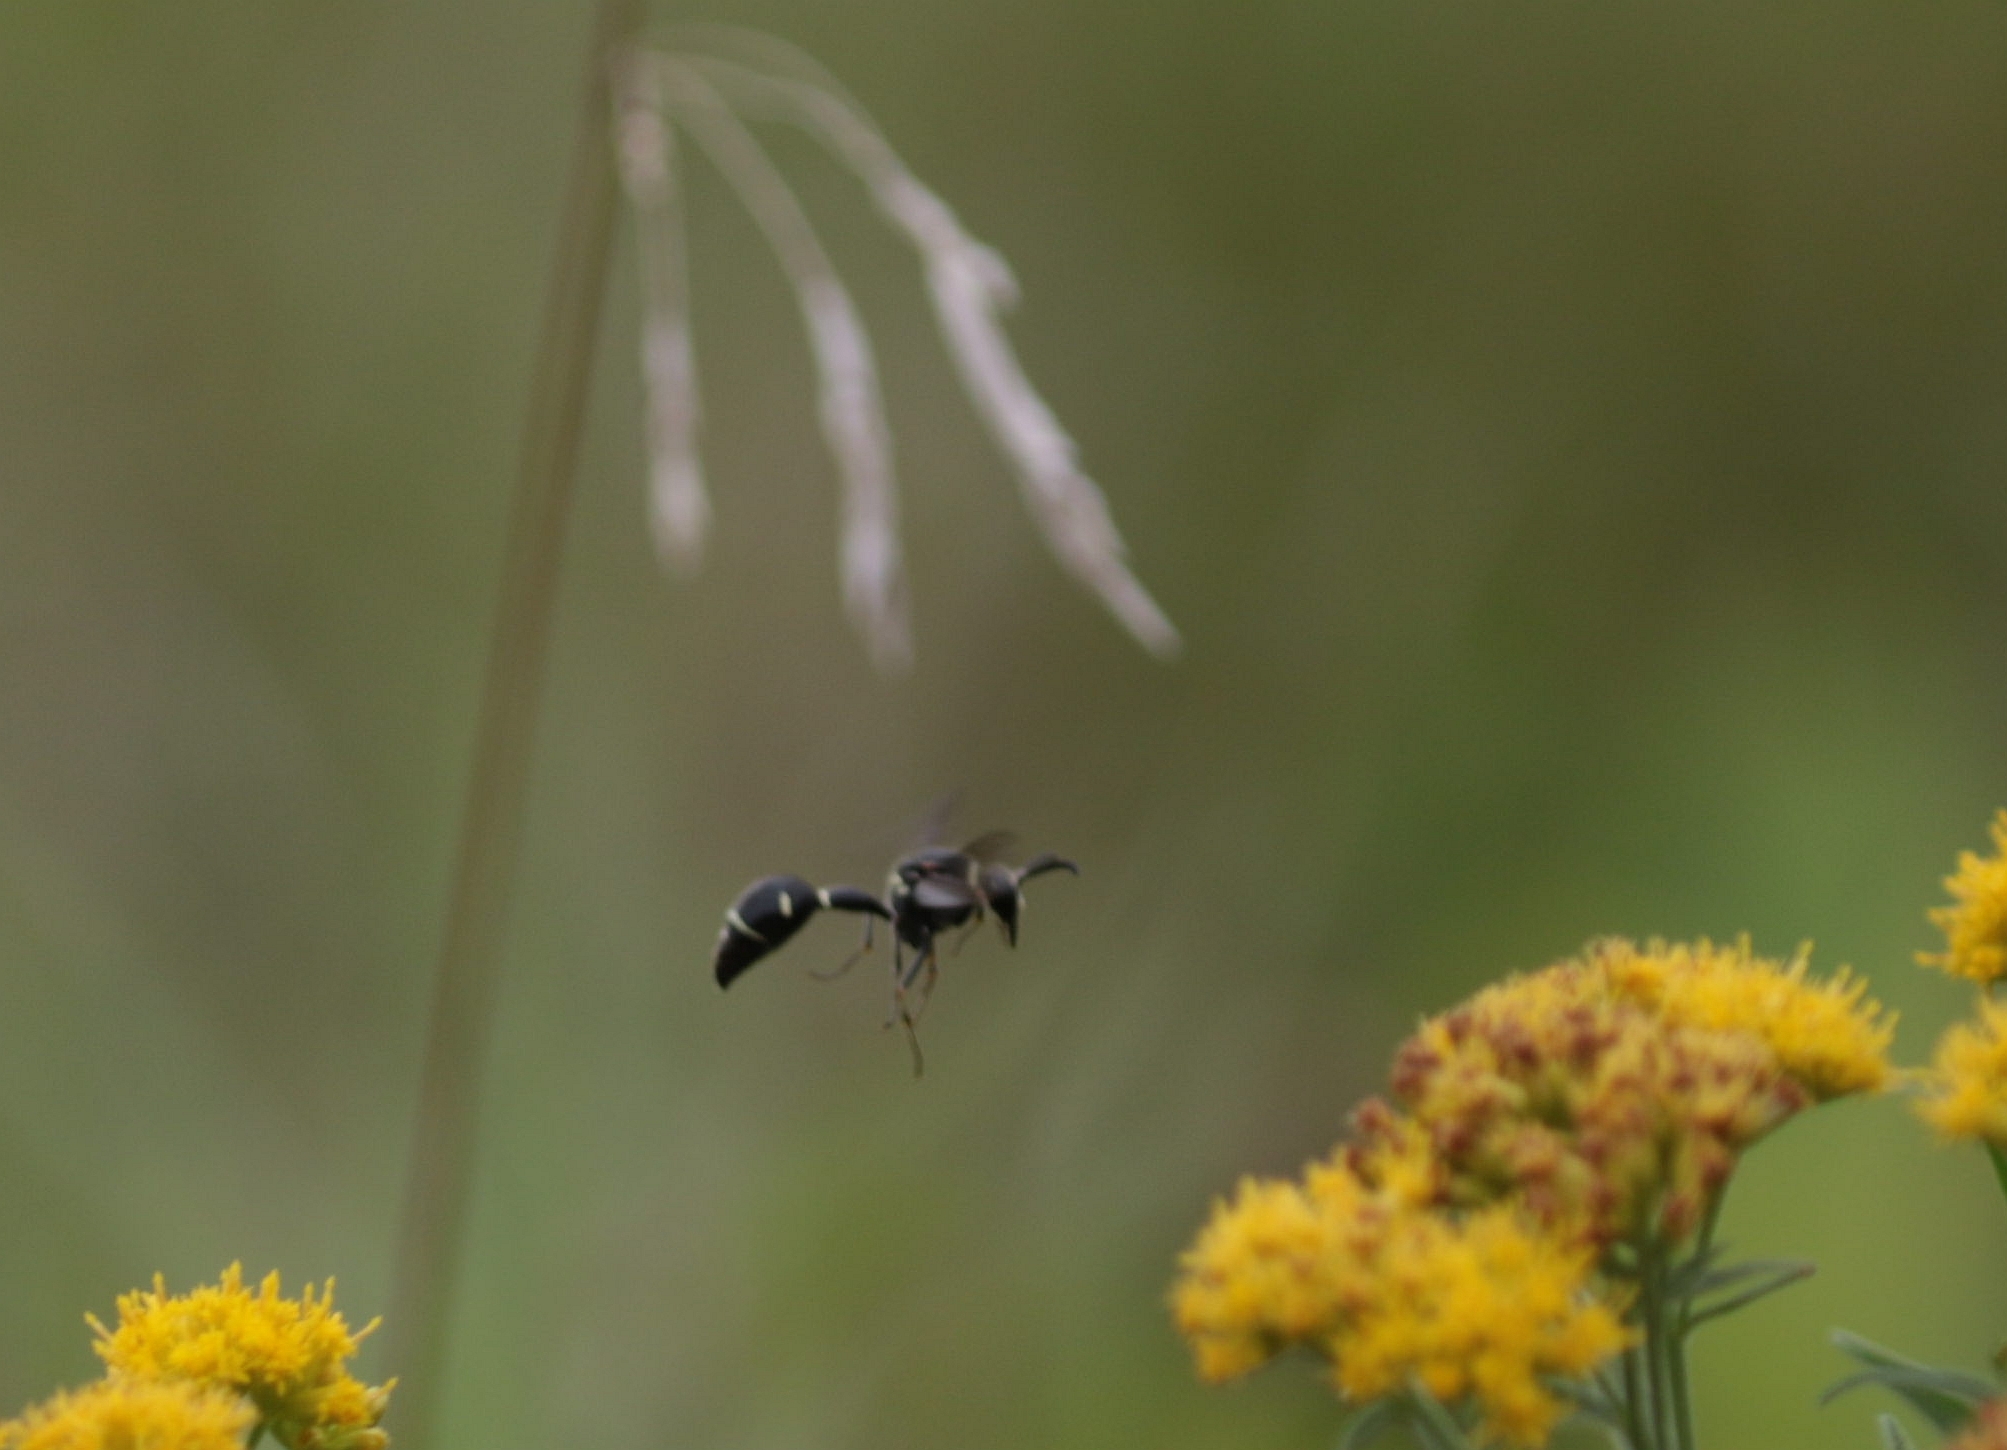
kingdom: Animalia
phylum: Arthropoda
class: Insecta
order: Hymenoptera
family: Vespidae
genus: Eumenes
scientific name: Eumenes fraternus
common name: Fraternal potter wasp
